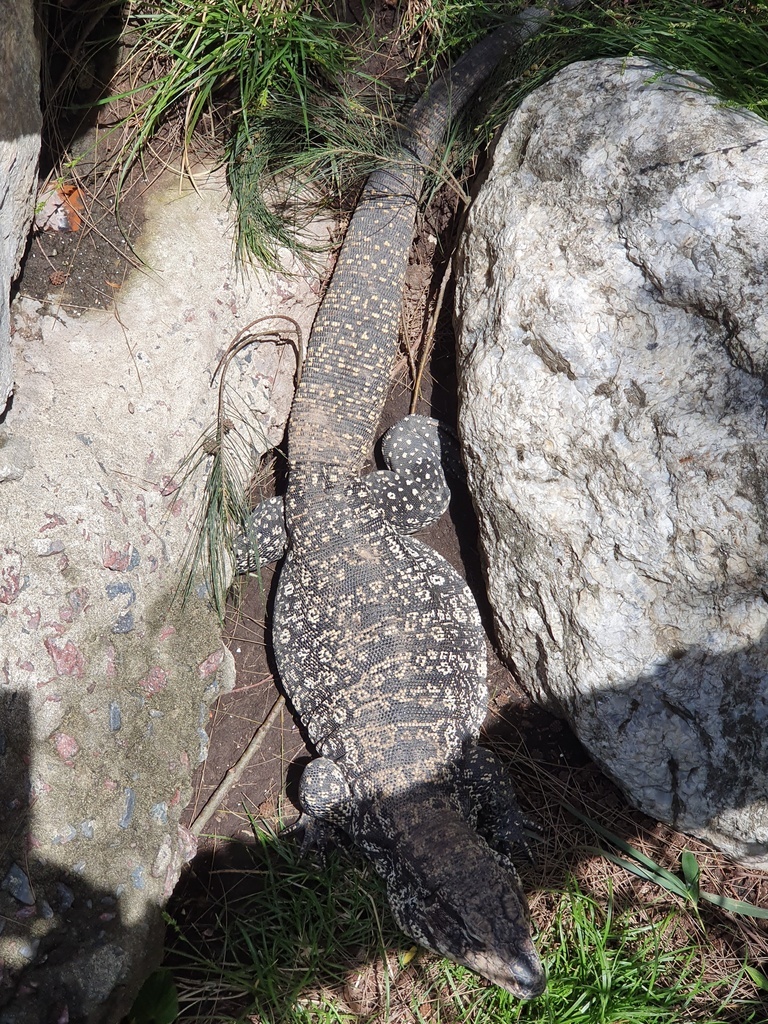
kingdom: Animalia
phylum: Chordata
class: Squamata
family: Teiidae
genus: Salvator
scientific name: Salvator merianae
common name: Argentine black and white tegu
